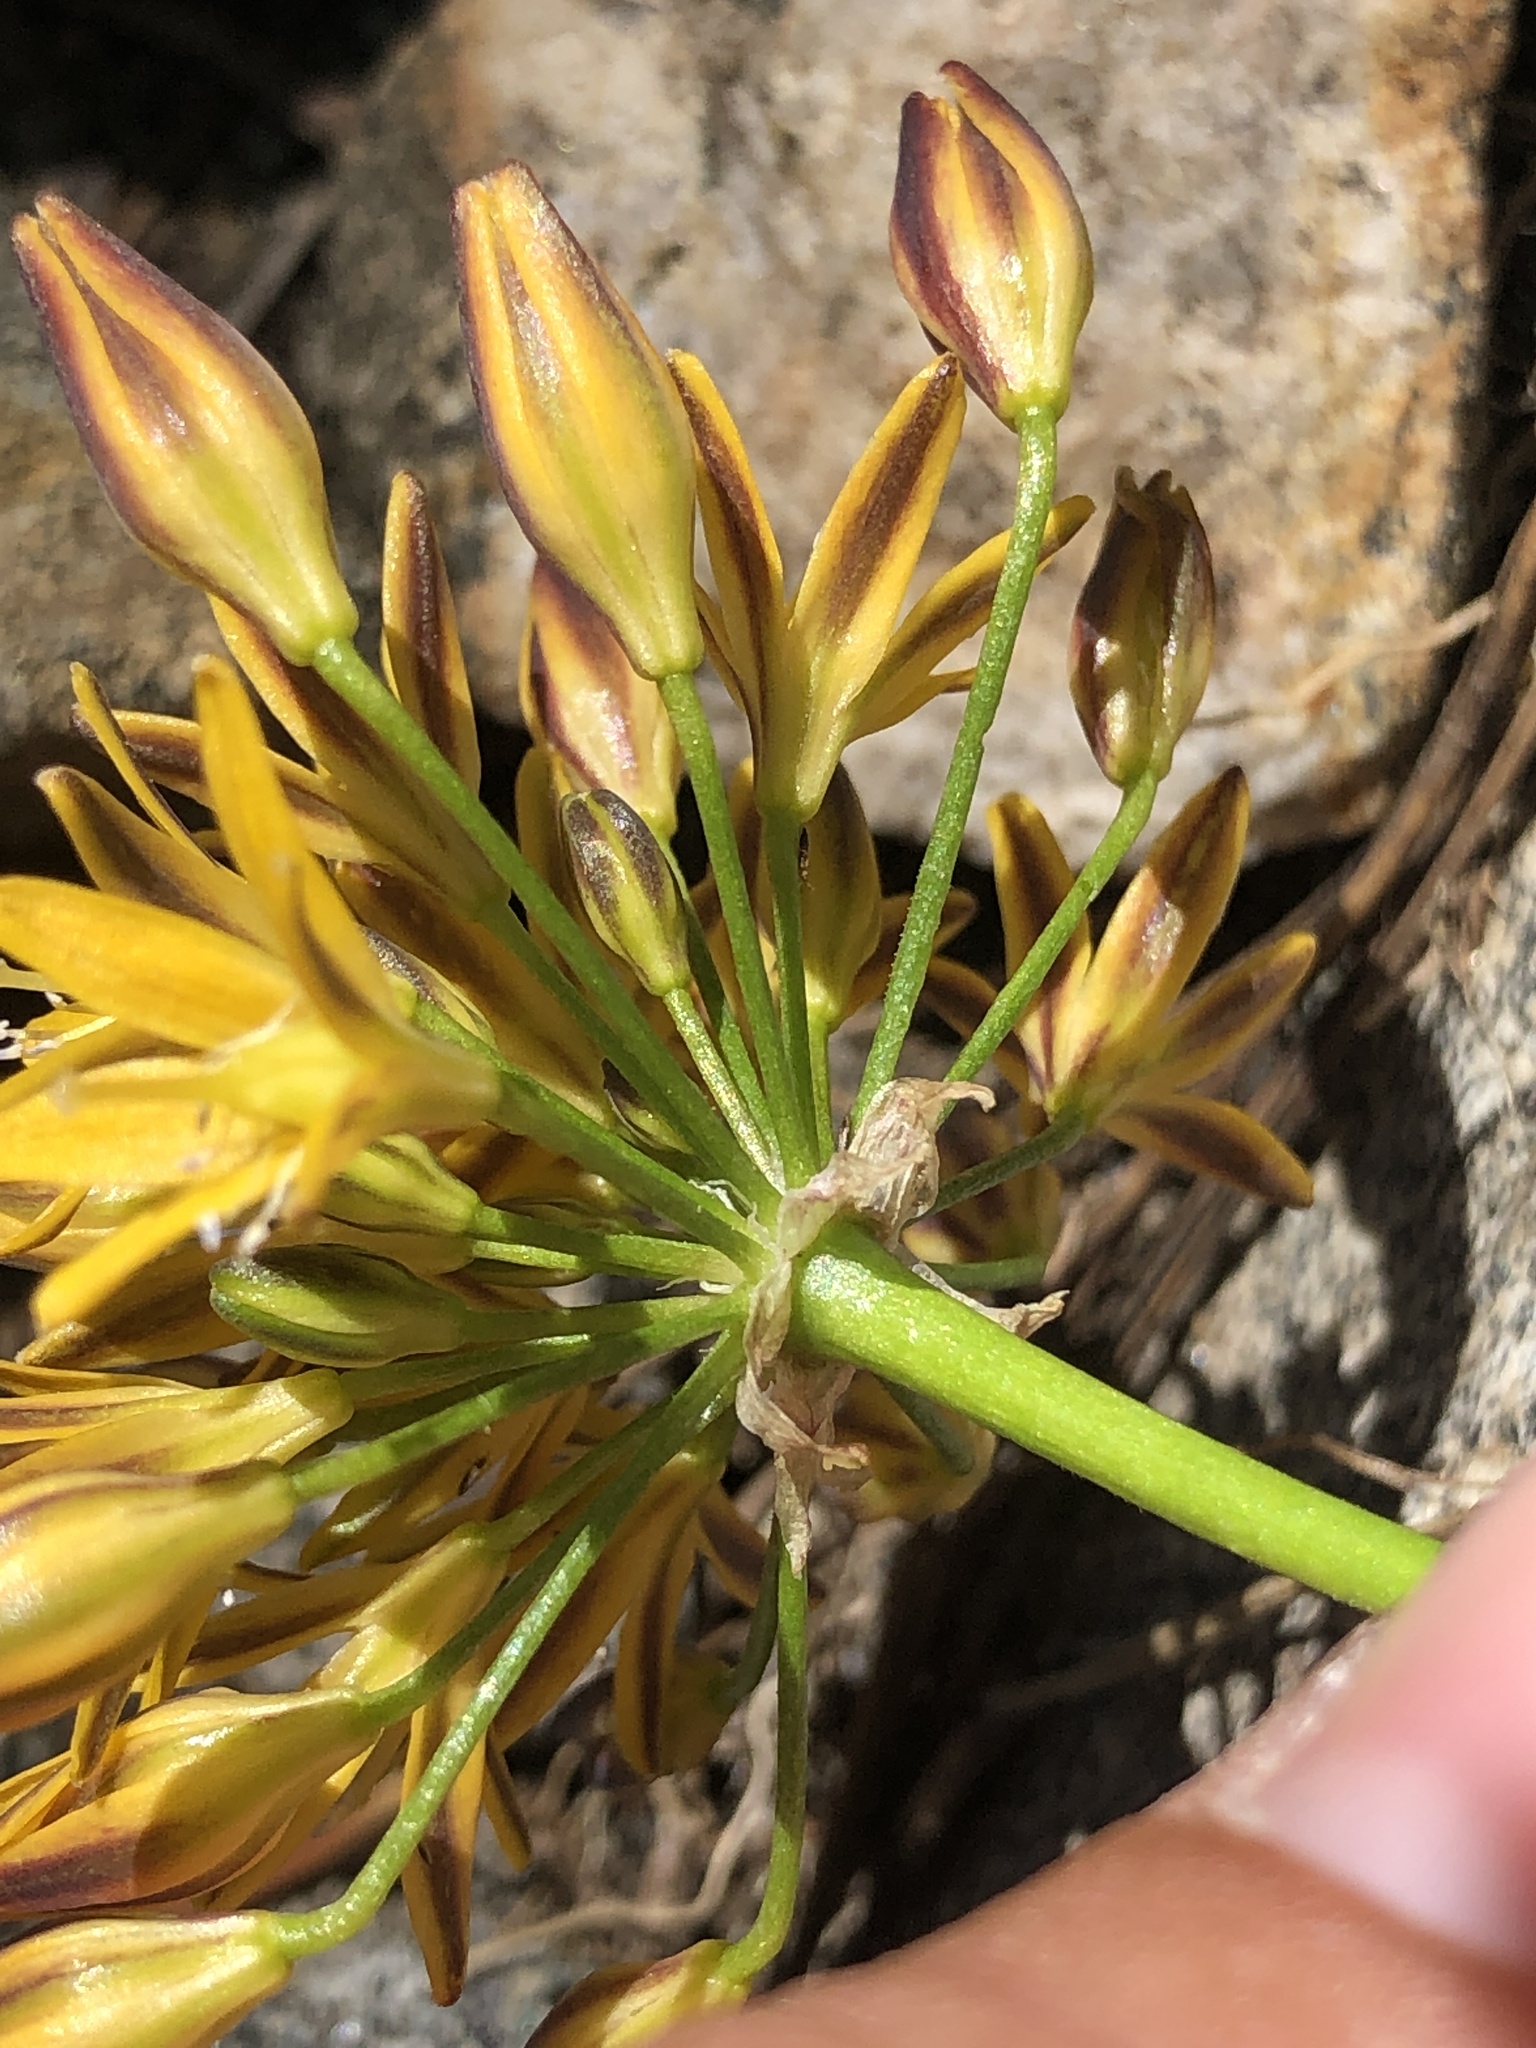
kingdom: Plantae
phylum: Tracheophyta
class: Liliopsida
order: Asparagales
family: Asparagaceae
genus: Triteleia
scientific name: Triteleia montana
